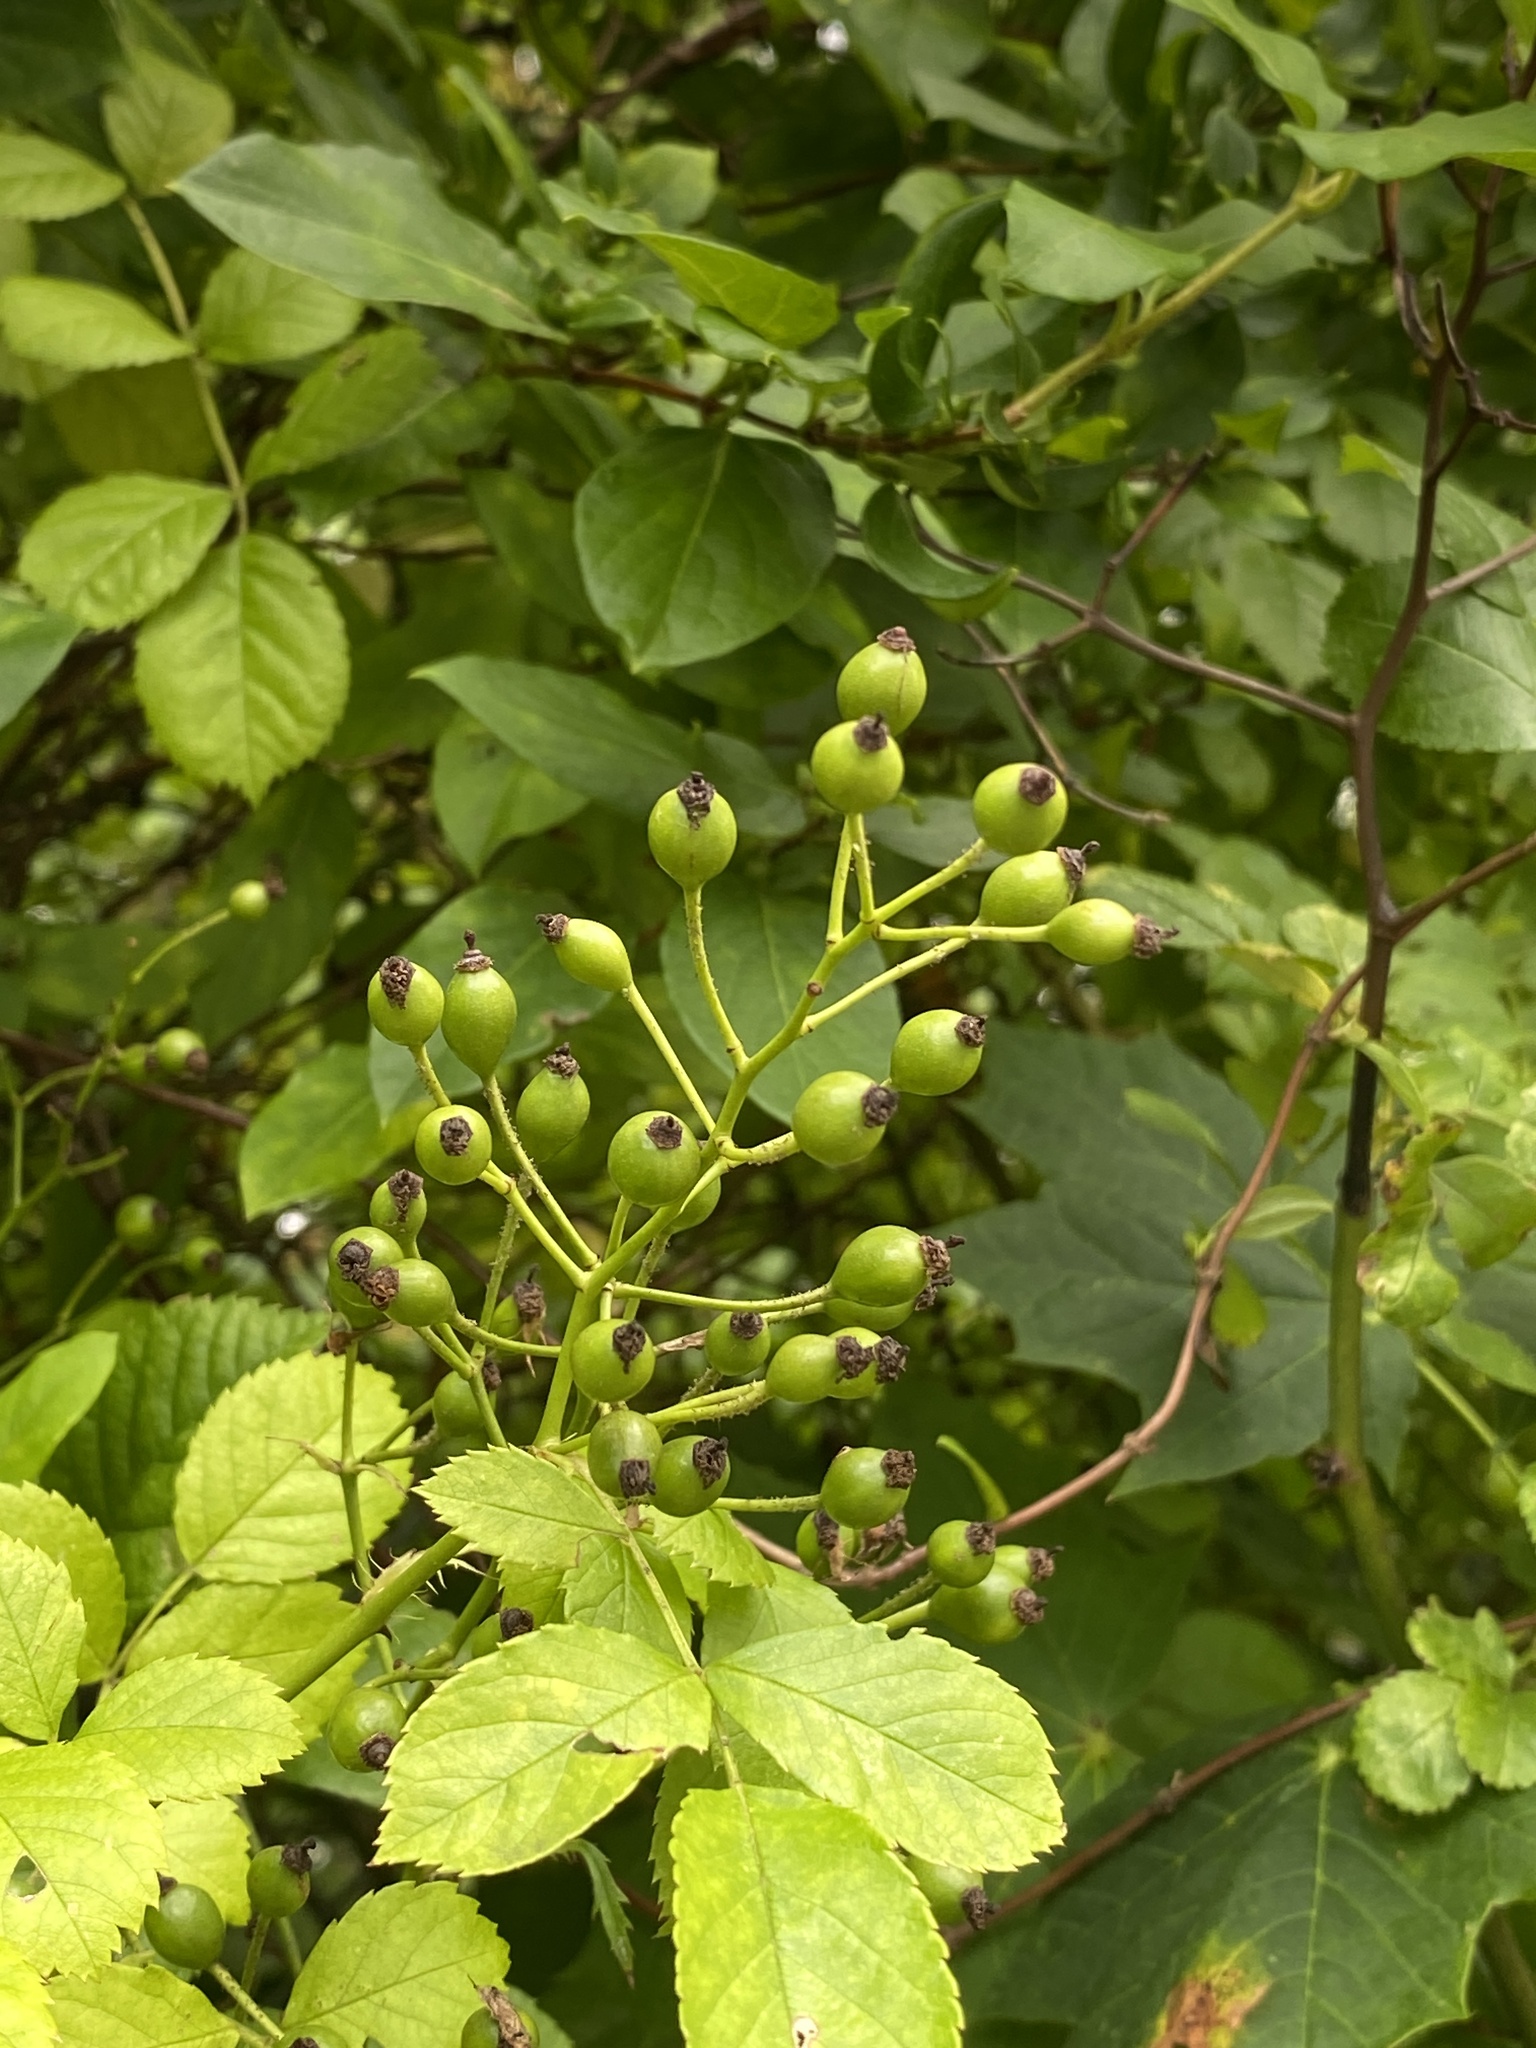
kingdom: Plantae
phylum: Tracheophyta
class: Magnoliopsida
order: Rosales
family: Rosaceae
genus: Rosa
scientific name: Rosa multiflora
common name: Multiflora rose
